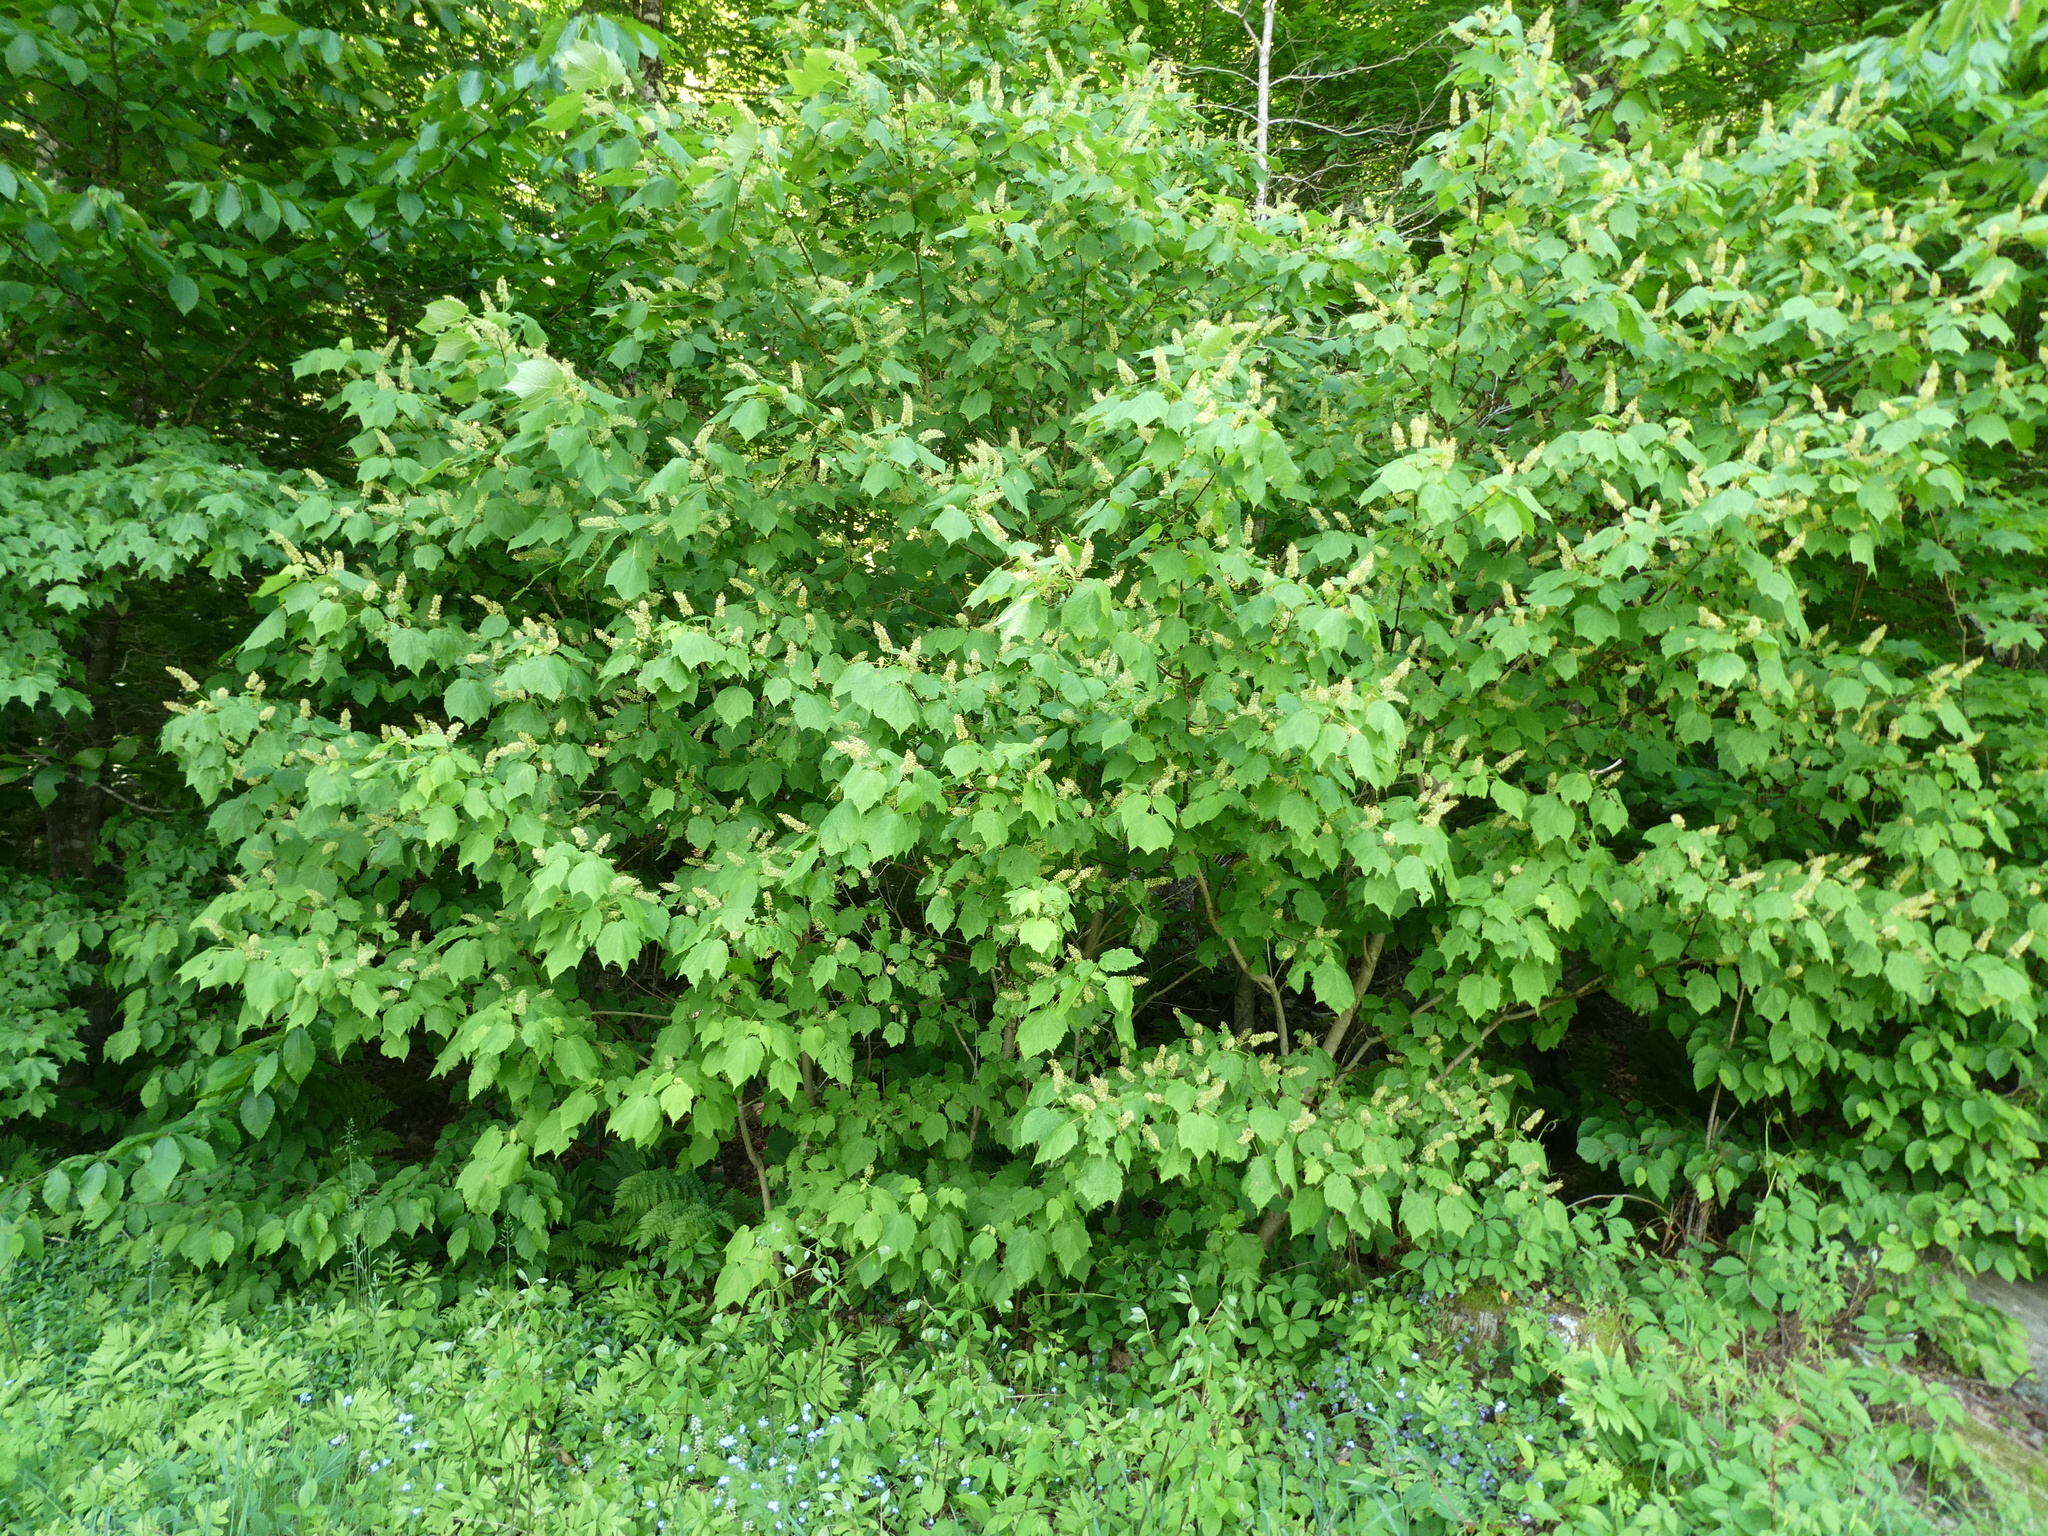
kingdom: Plantae
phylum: Tracheophyta
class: Magnoliopsida
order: Sapindales
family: Sapindaceae
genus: Acer
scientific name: Acer spicatum
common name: Mountain maple
